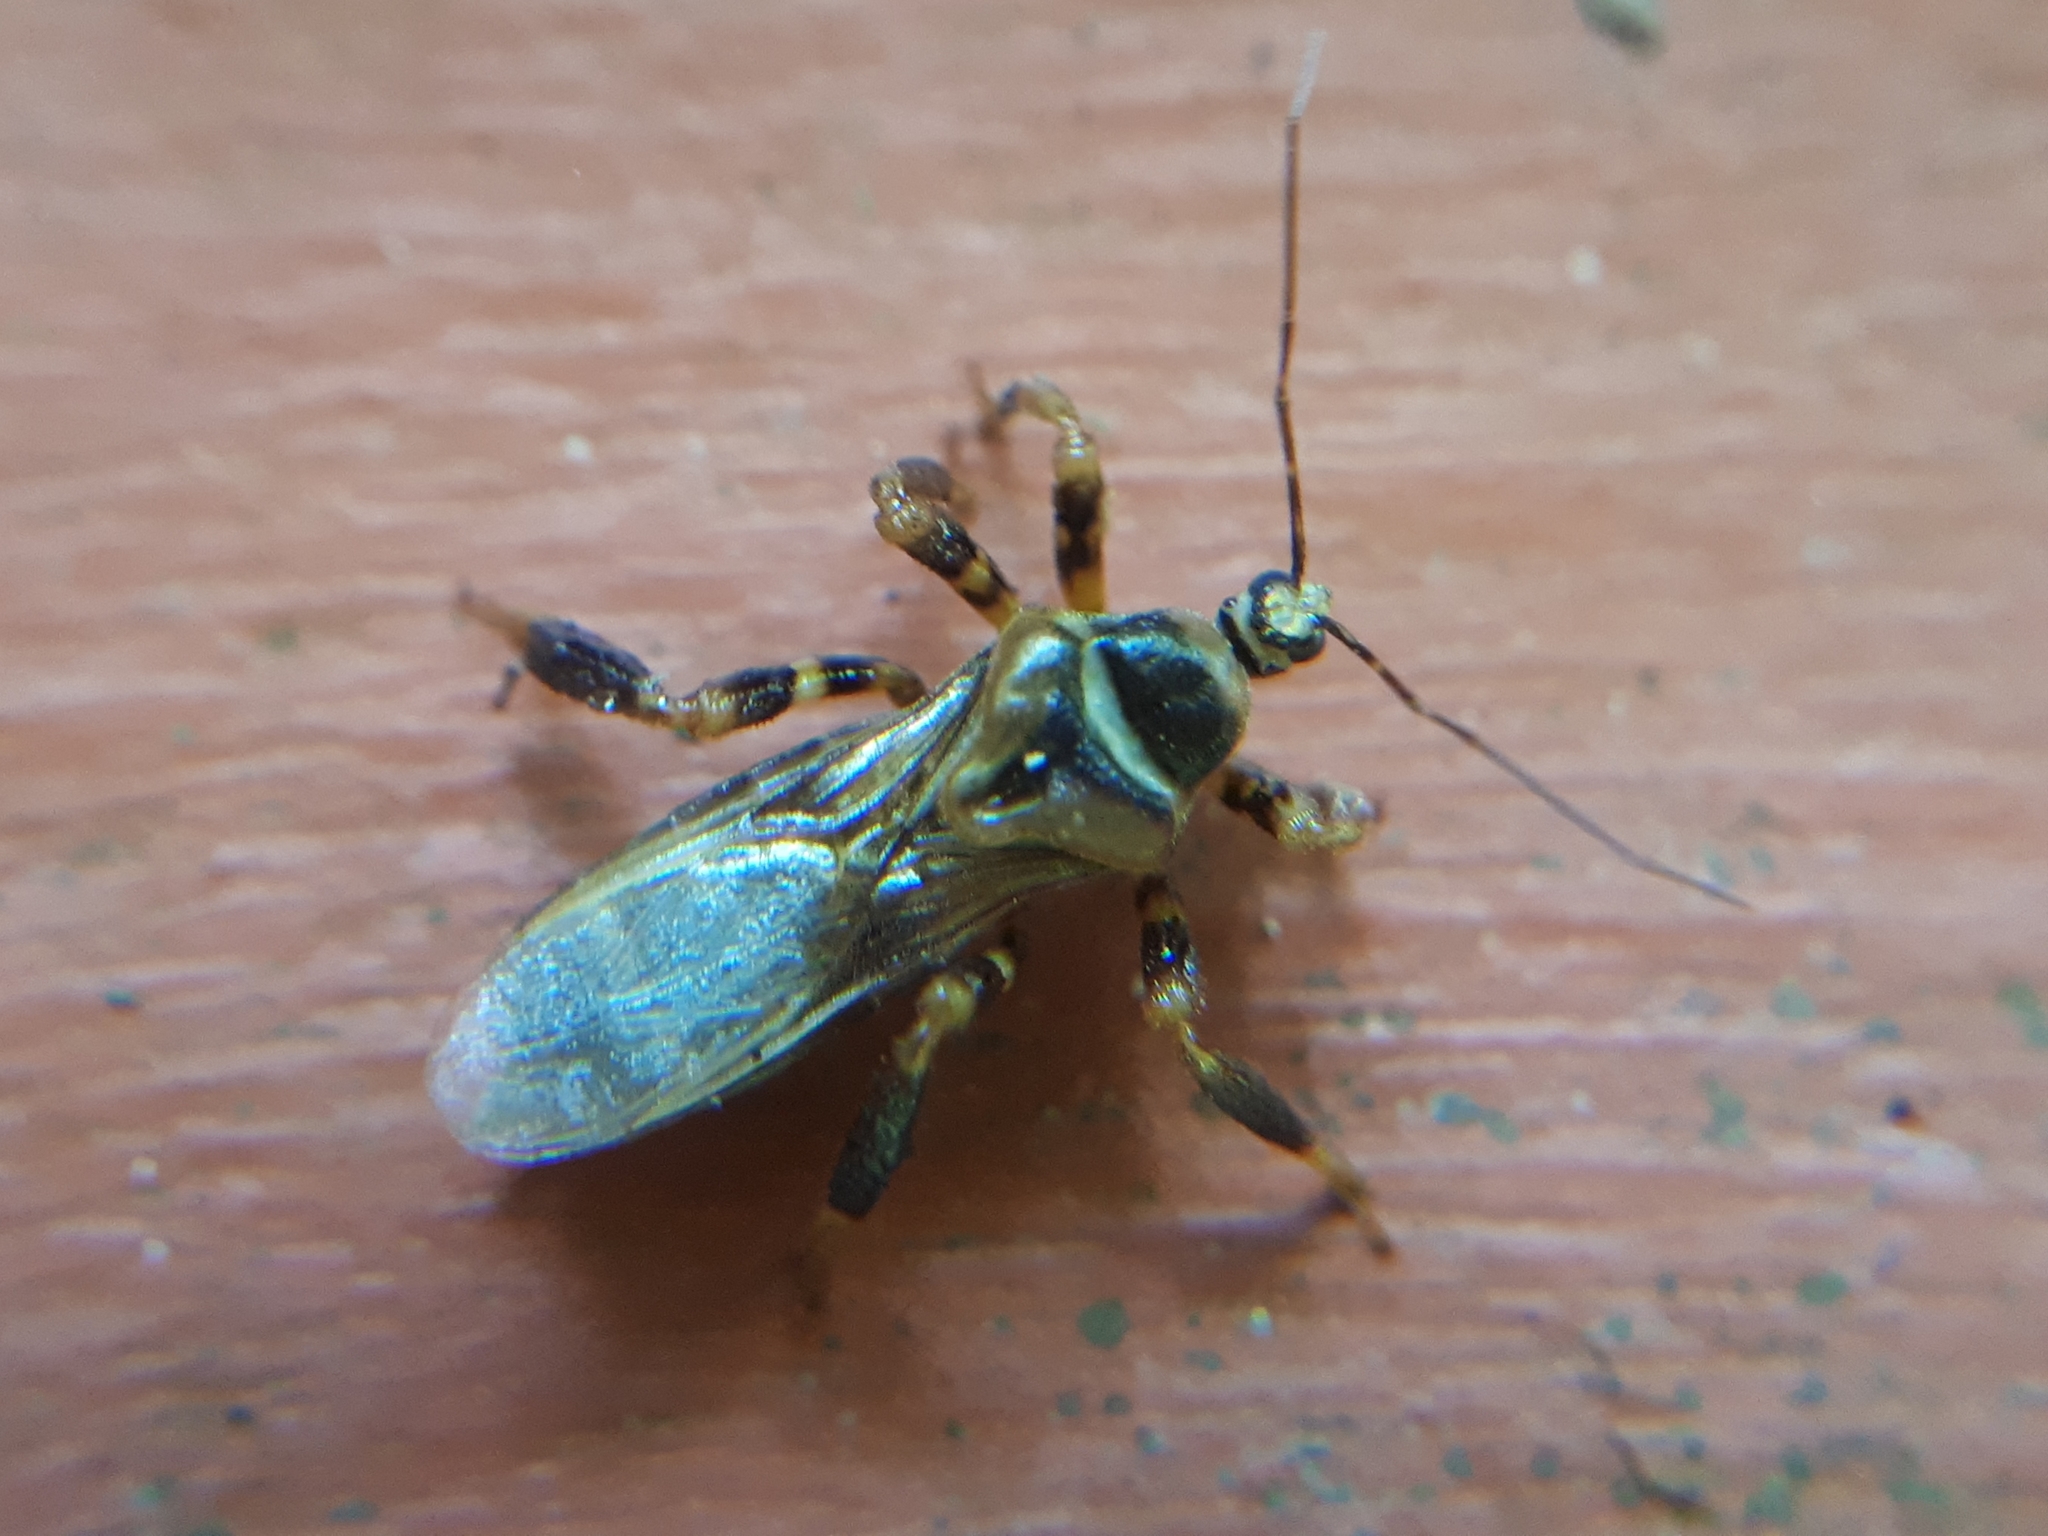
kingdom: Animalia
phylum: Arthropoda
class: Insecta
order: Hemiptera
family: Reduviidae
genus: Notocyrtus
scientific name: Notocyrtus foveatus
